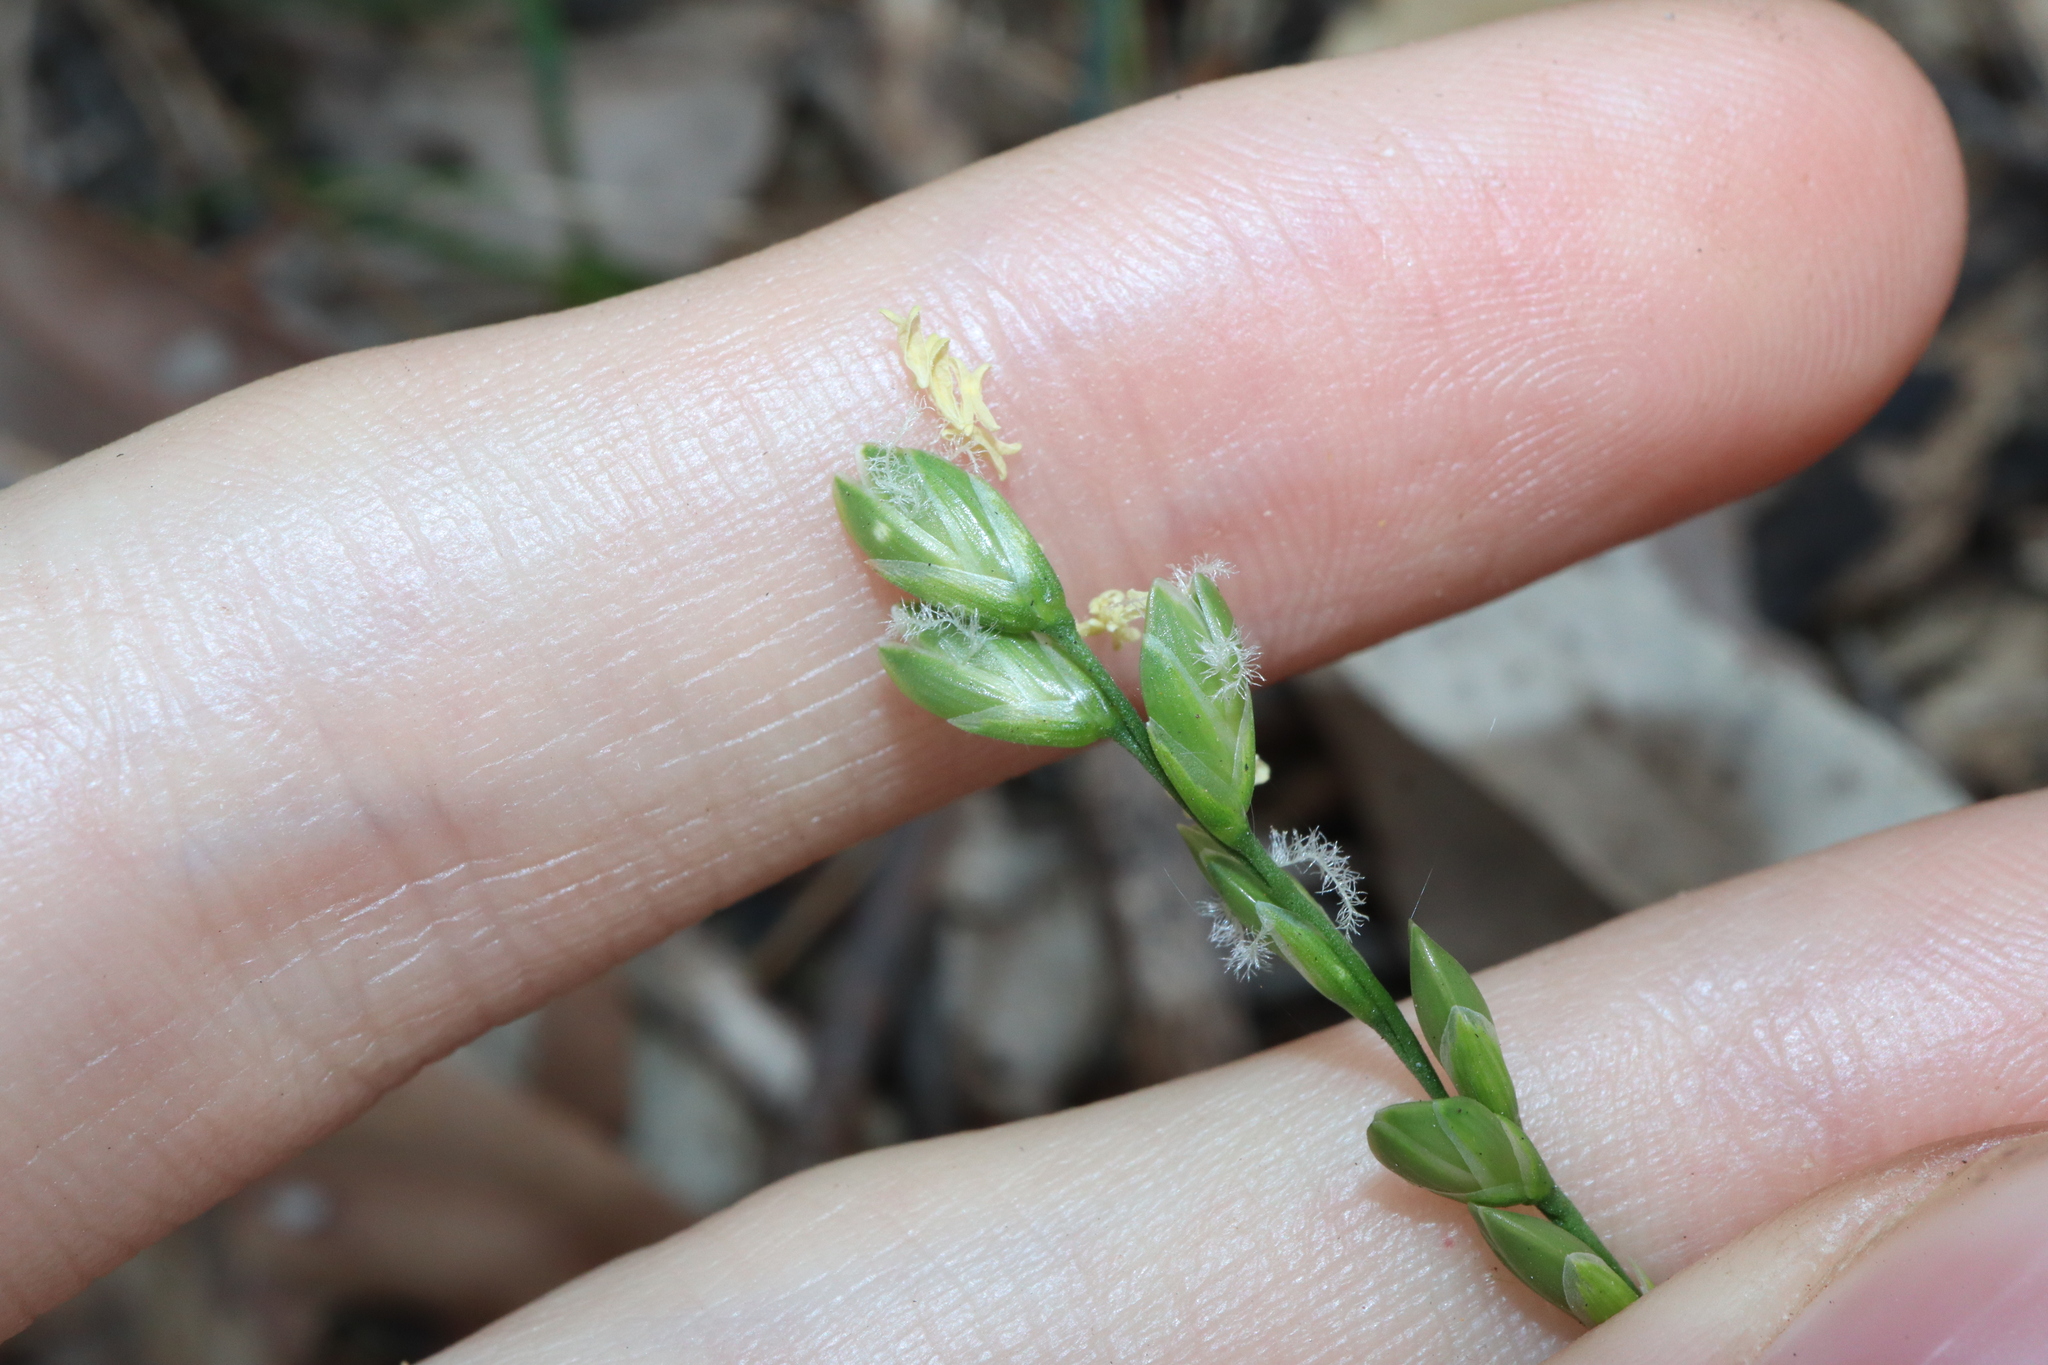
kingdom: Plantae
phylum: Tracheophyta
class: Liliopsida
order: Poales
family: Poaceae
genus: Ehrharta
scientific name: Ehrharta erecta
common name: Panic veldtgrass
